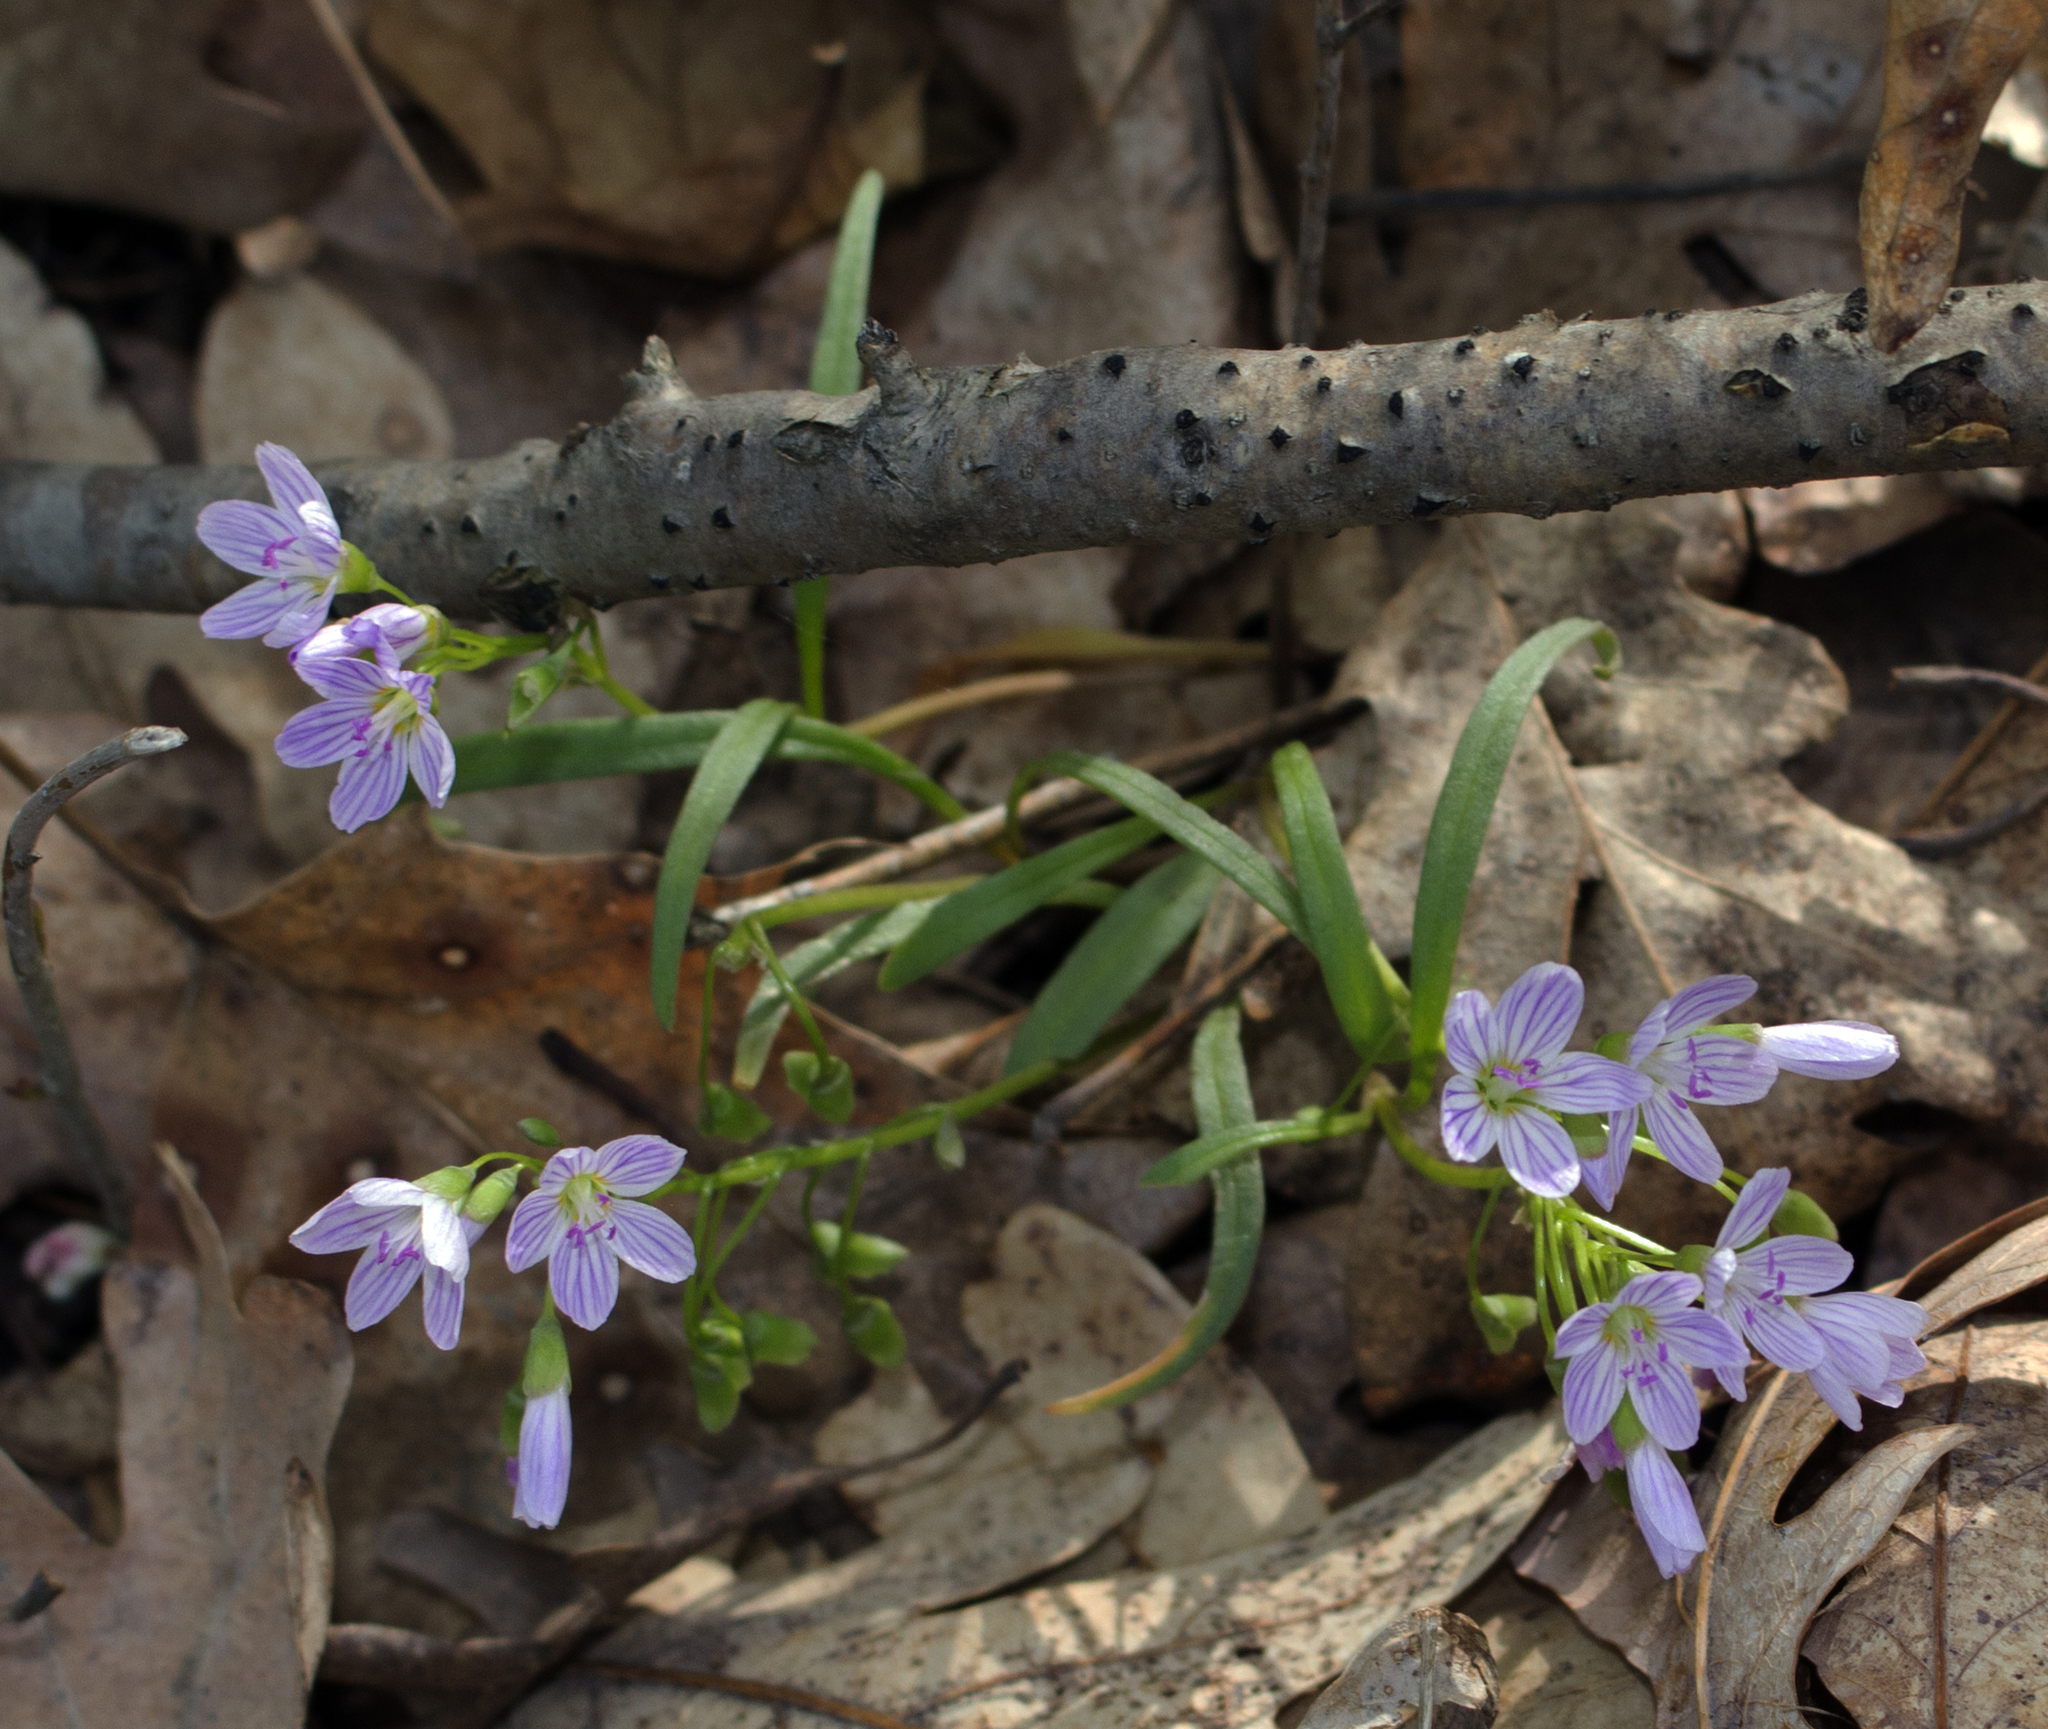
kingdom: Plantae
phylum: Tracheophyta
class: Magnoliopsida
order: Caryophyllales
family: Montiaceae
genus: Claytonia
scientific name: Claytonia virginica
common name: Virginia springbeauty
